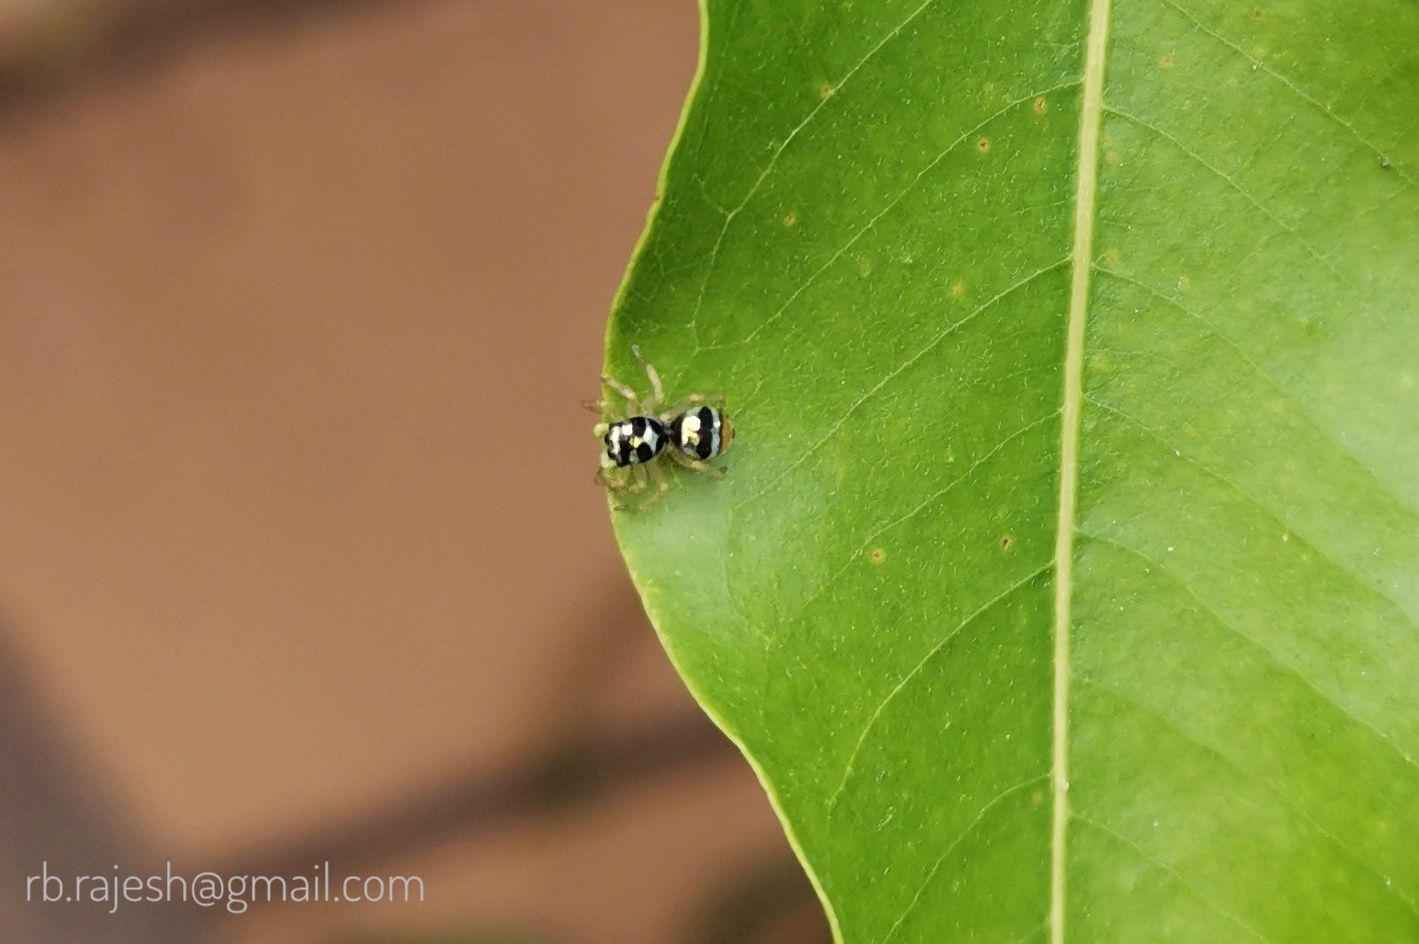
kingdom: Animalia
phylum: Arthropoda
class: Arachnida
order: Araneae
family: Salticidae
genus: Phintella
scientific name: Phintella vittata
